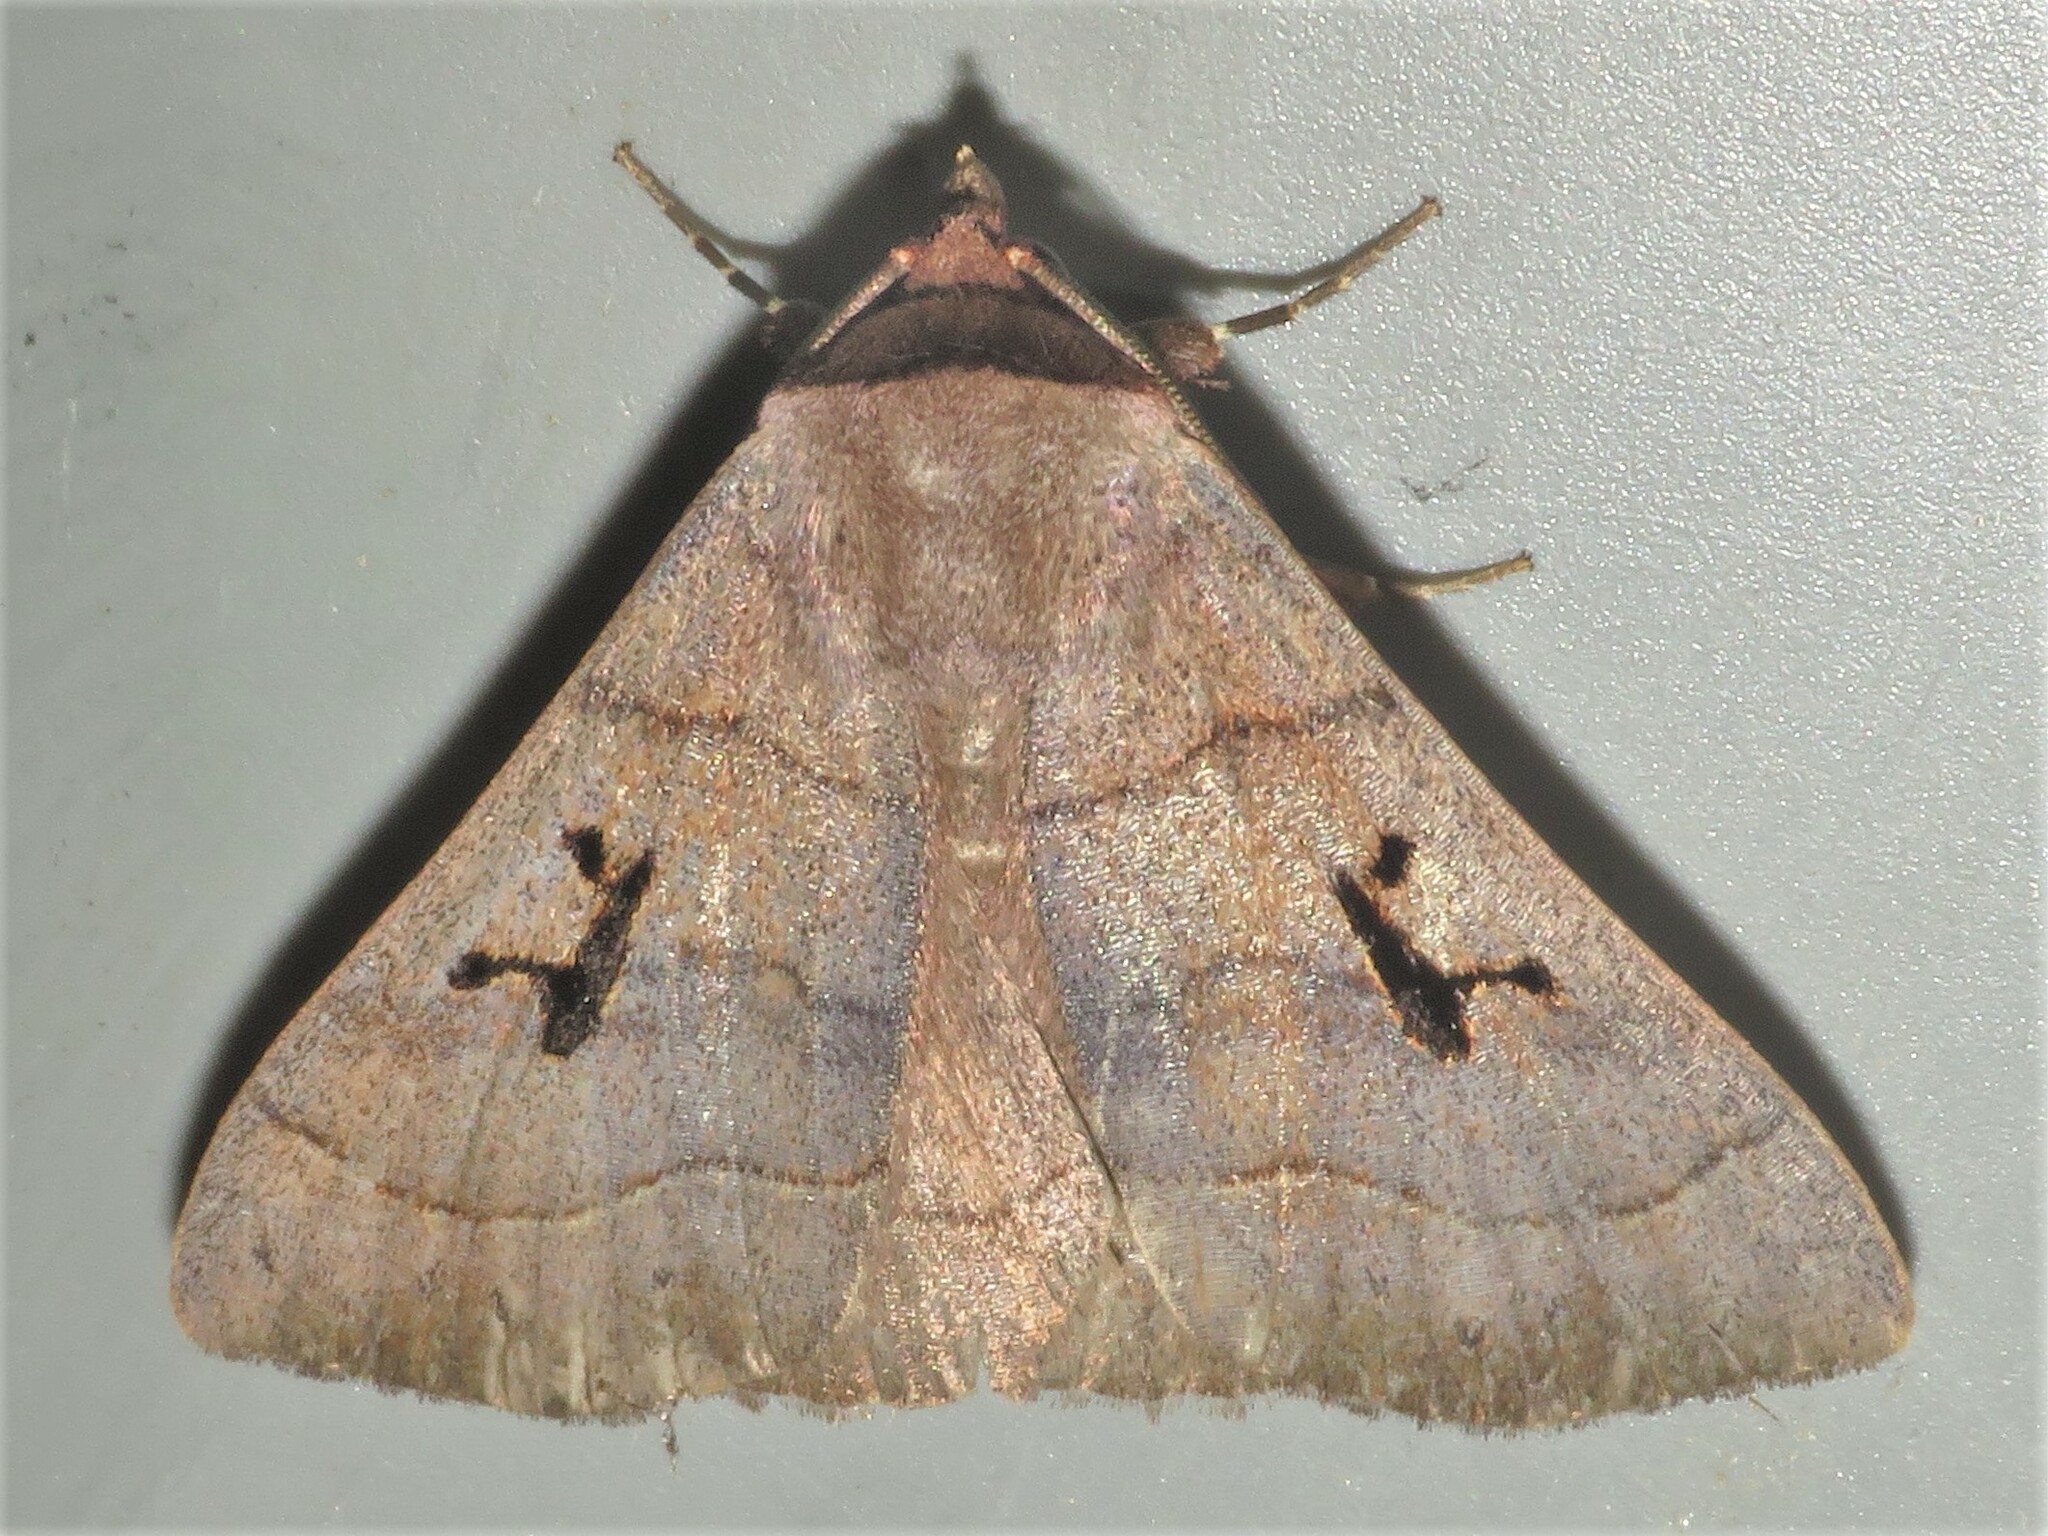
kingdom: Animalia
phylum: Arthropoda
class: Insecta
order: Lepidoptera
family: Erebidae
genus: Panopoda
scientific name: Panopoda carneicosta
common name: Brown panopoda moth
